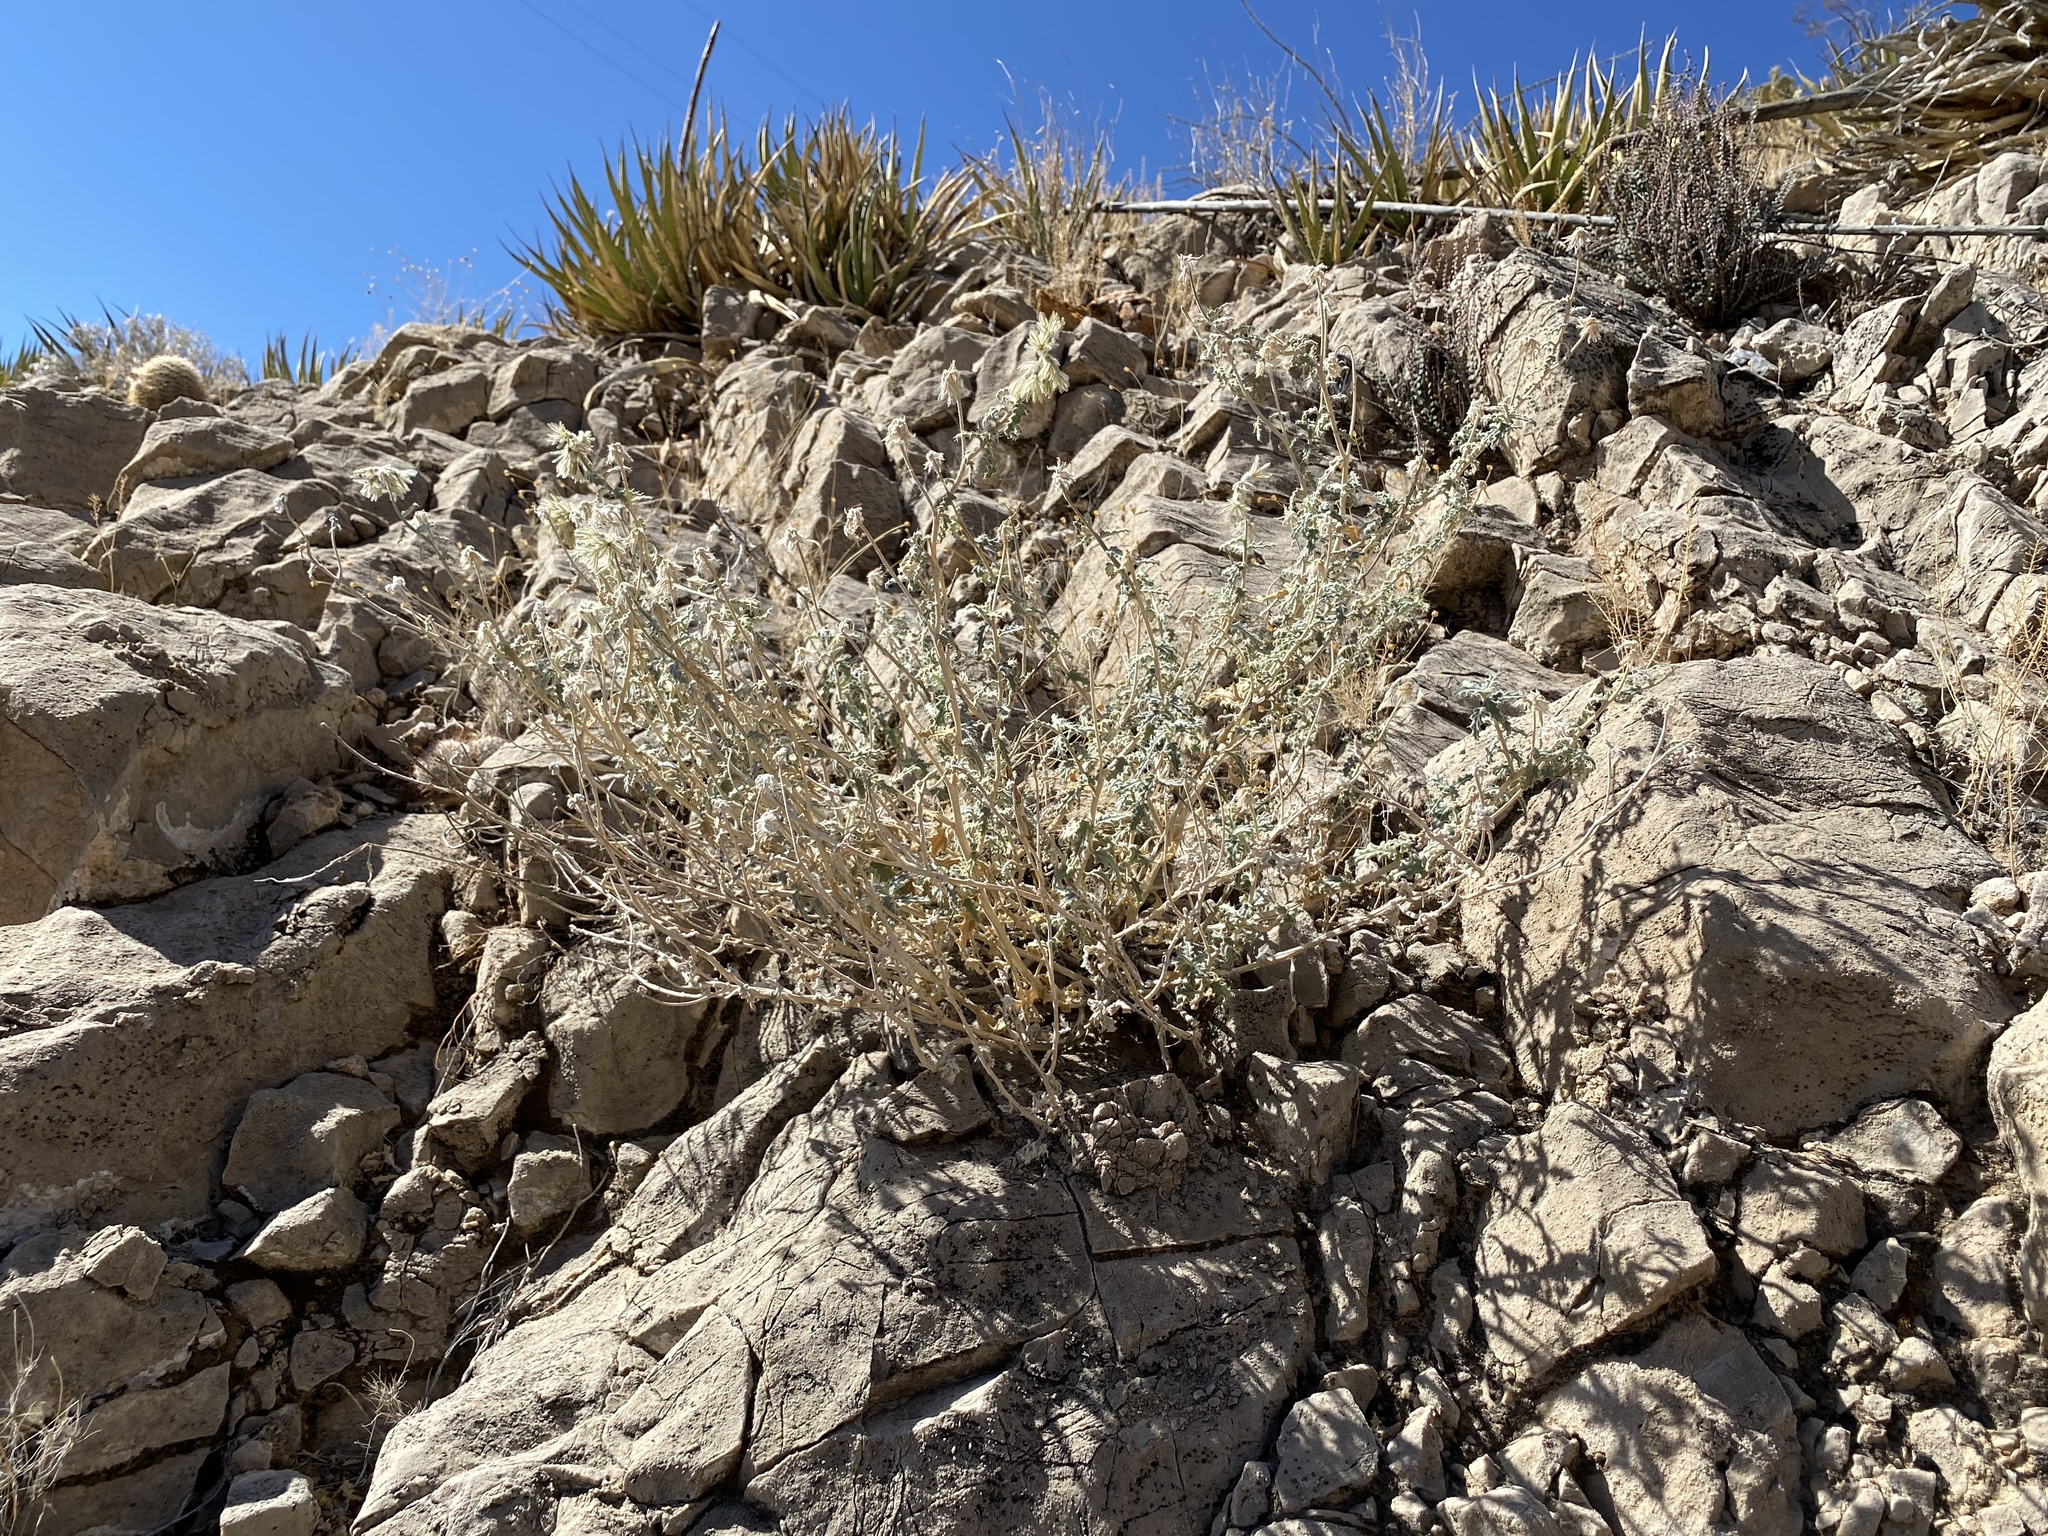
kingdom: Plantae
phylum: Tracheophyta
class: Magnoliopsida
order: Cornales
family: Loasaceae
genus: Cevallia
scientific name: Cevallia sinuata
